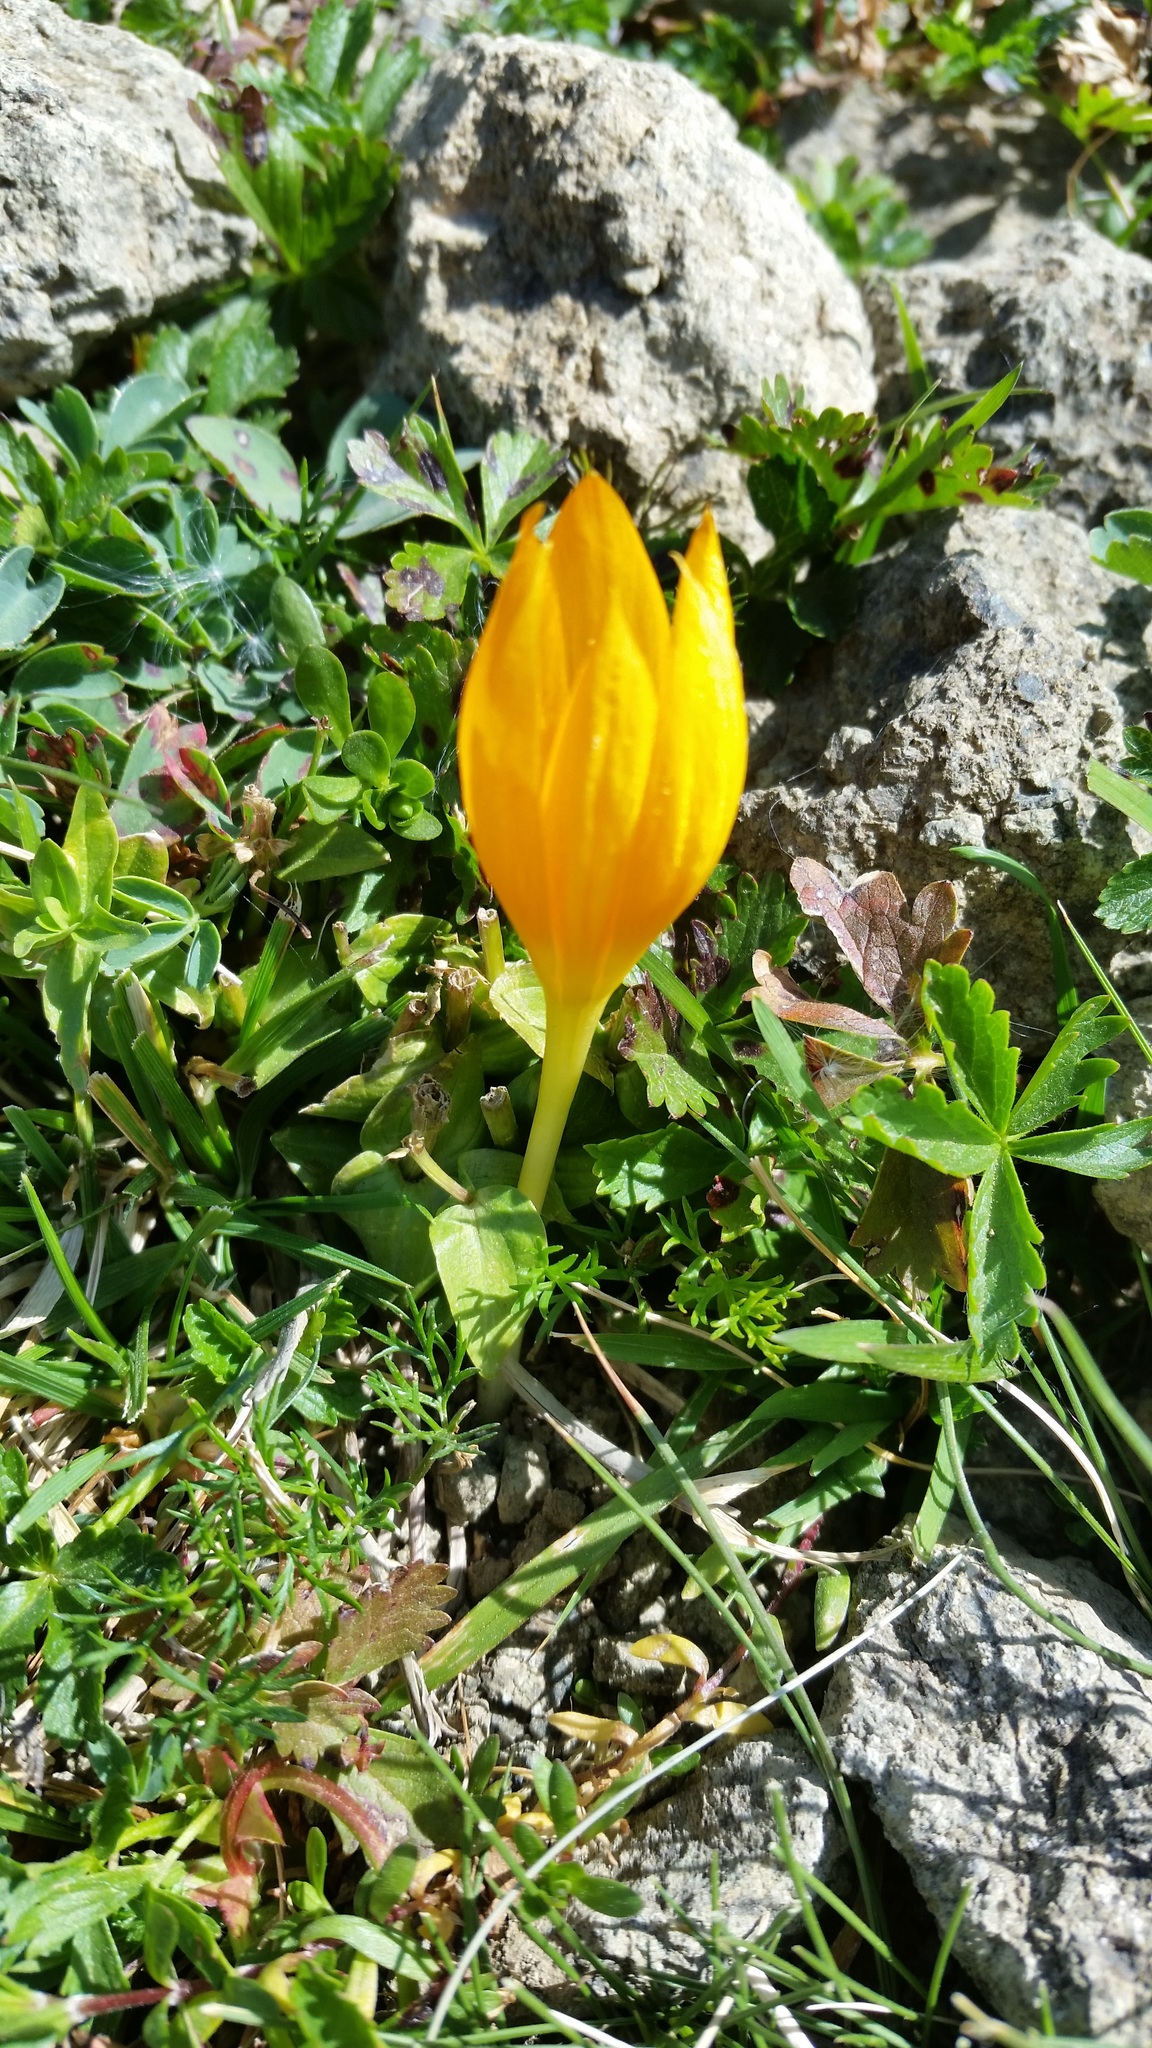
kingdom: Plantae
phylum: Tracheophyta
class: Liliopsida
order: Asparagales
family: Iridaceae
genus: Crocus
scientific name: Crocus scharojanii
